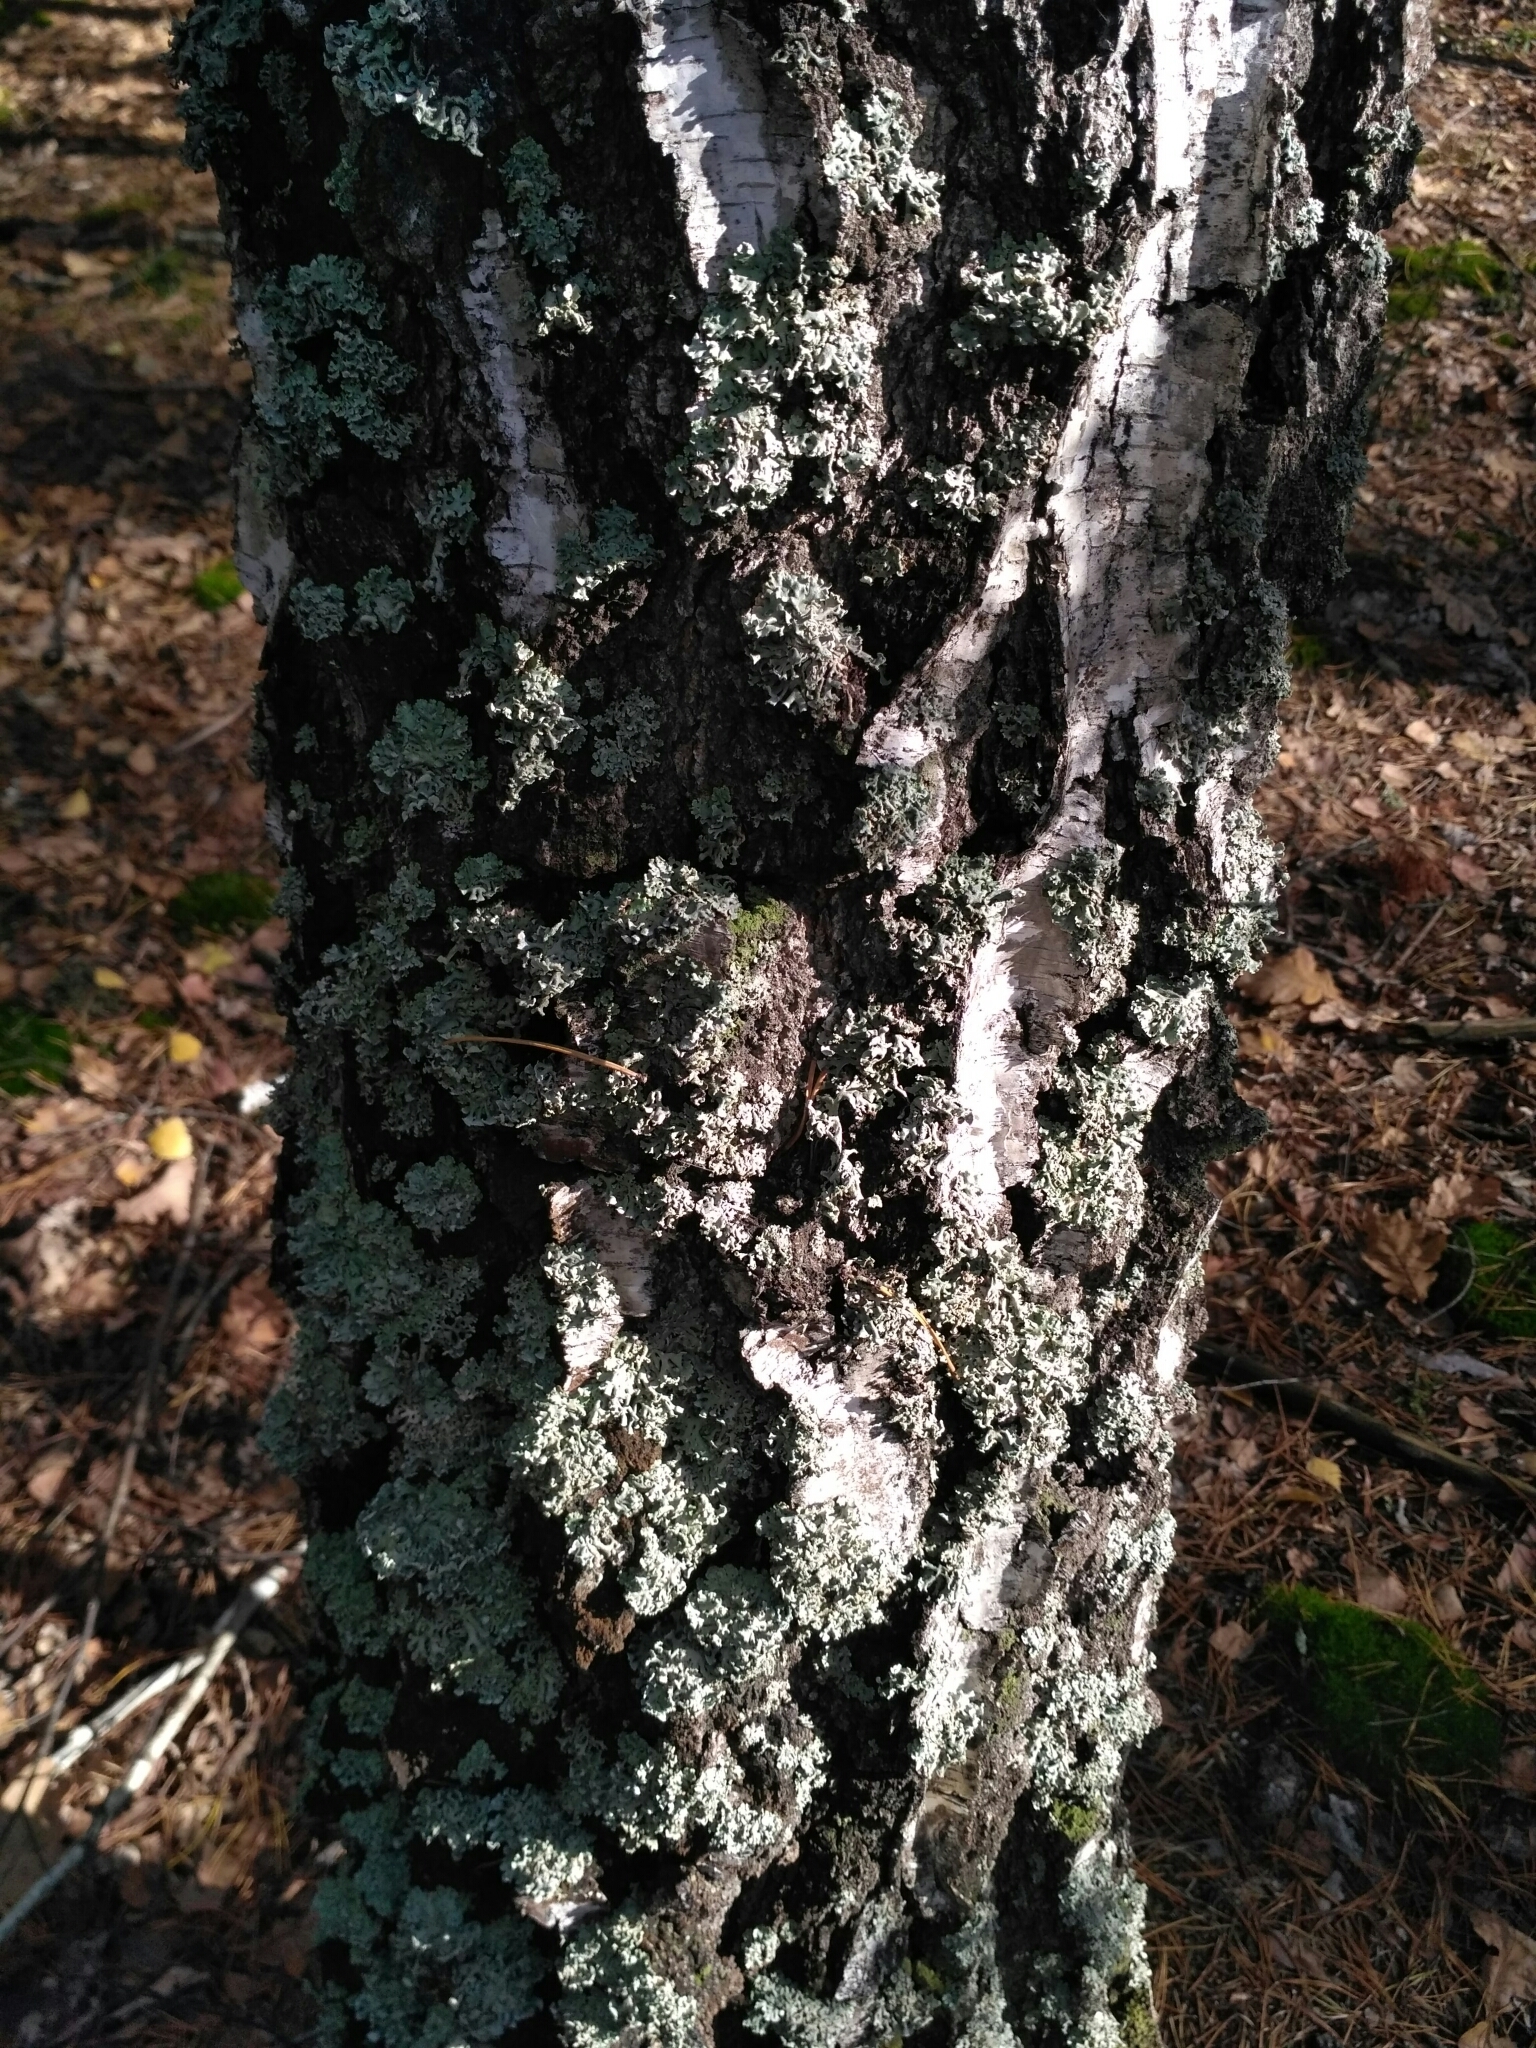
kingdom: Fungi
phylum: Ascomycota
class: Lecanoromycetes
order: Lecanorales
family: Parmeliaceae
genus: Hypogymnia
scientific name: Hypogymnia physodes
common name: Dark crottle
